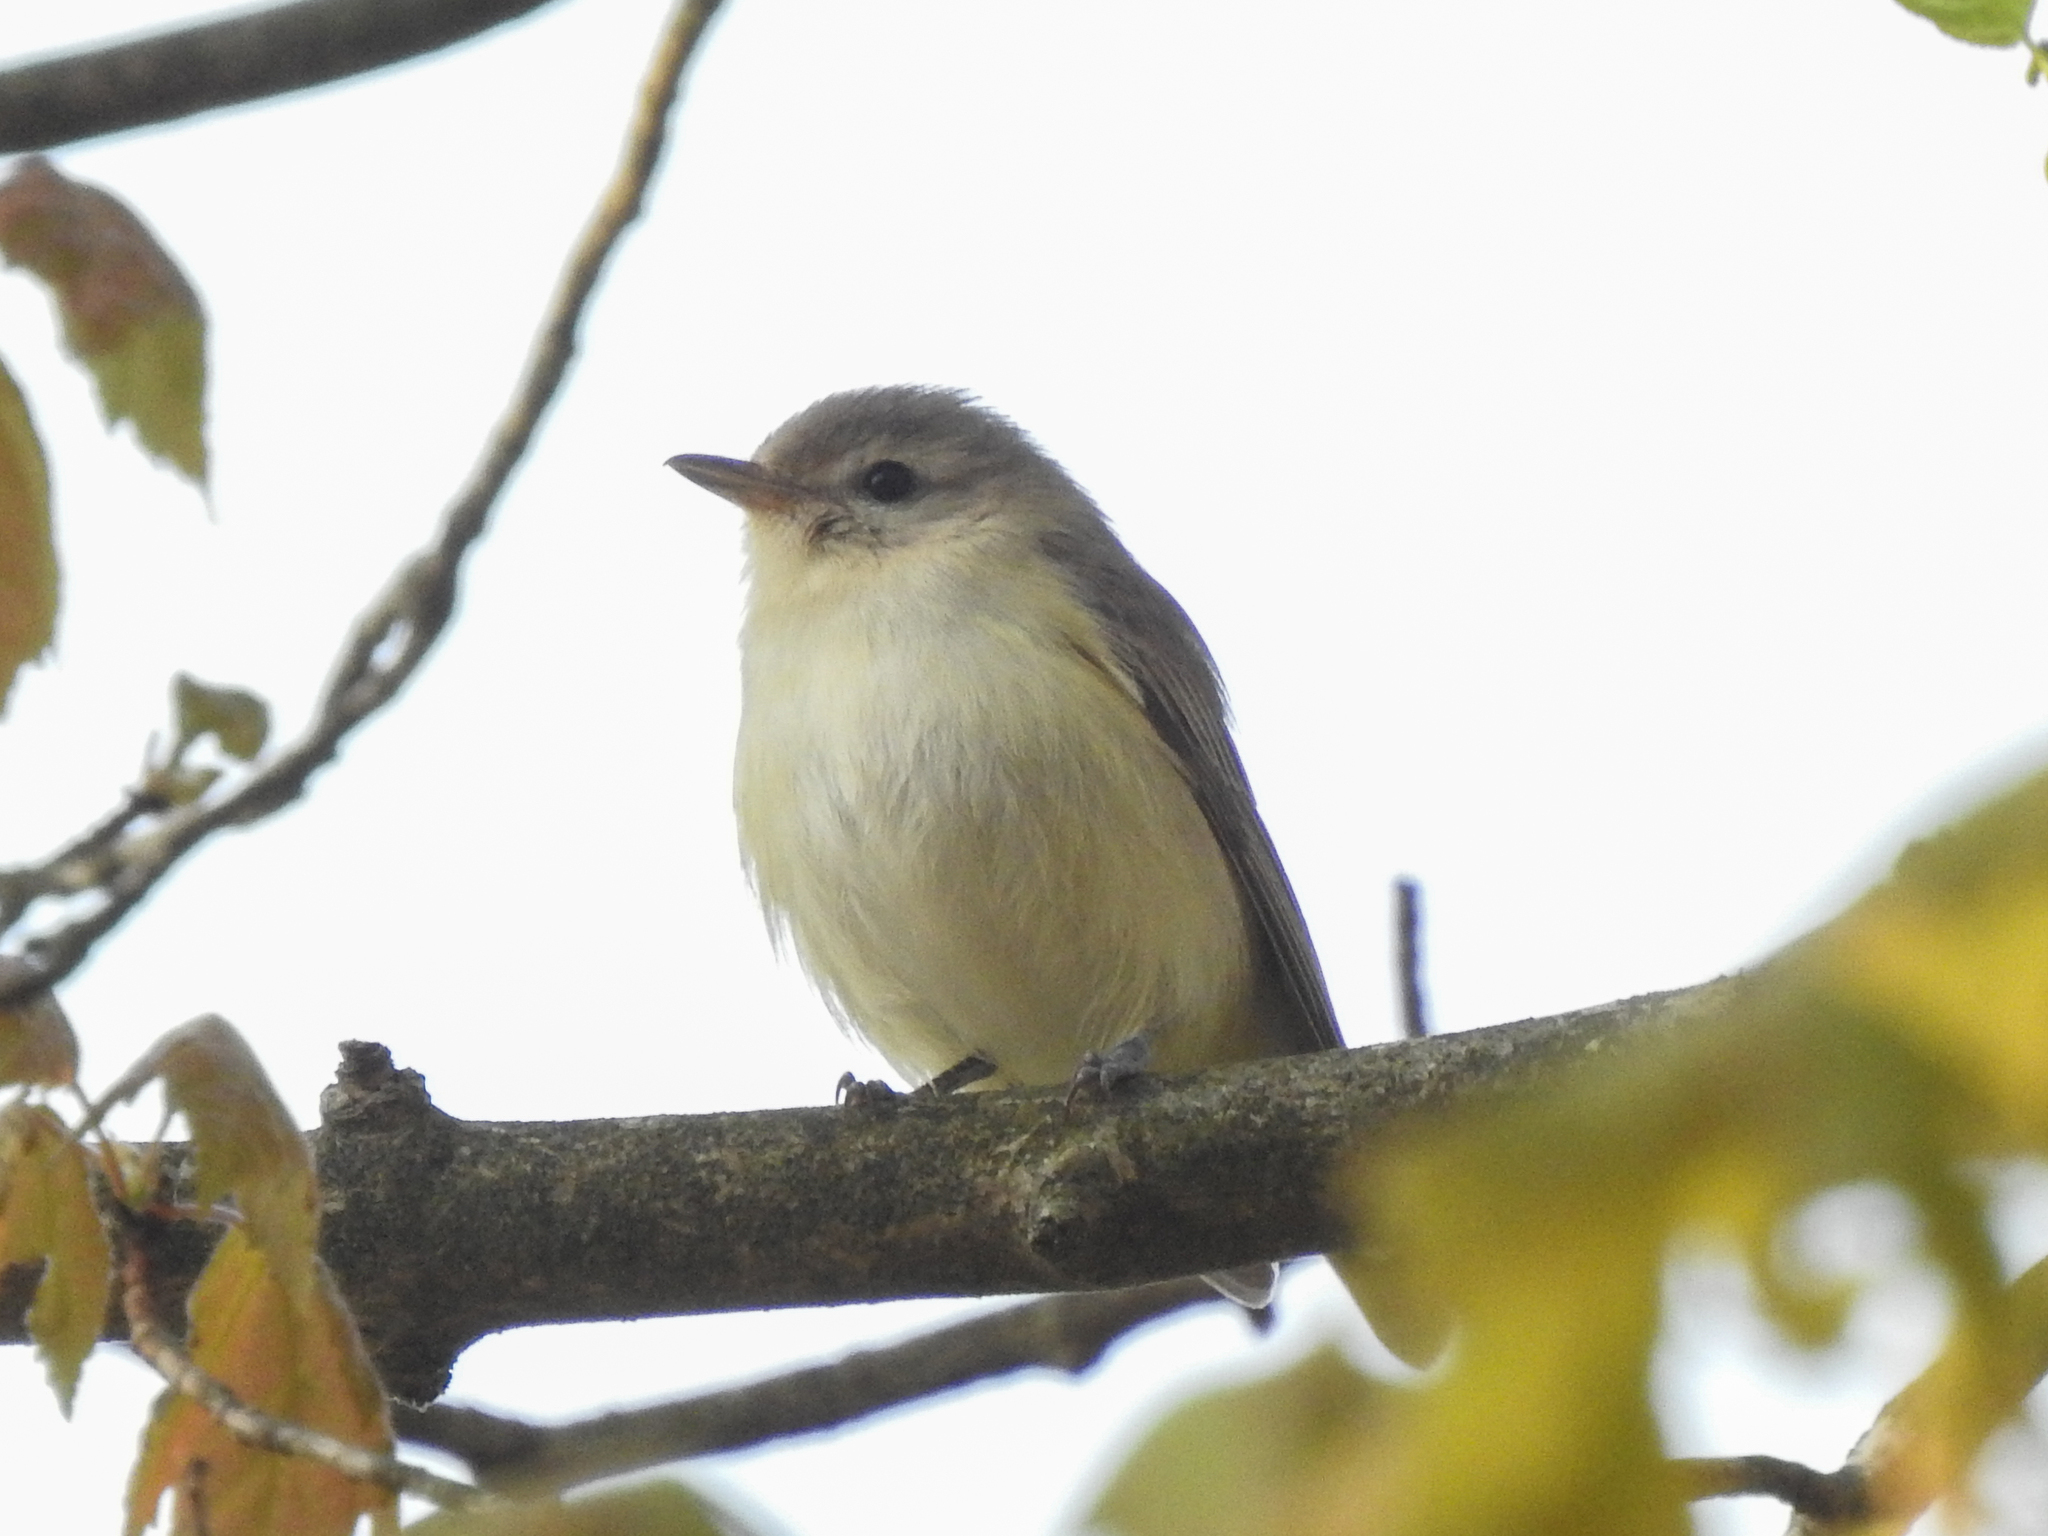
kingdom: Animalia
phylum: Chordata
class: Aves
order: Passeriformes
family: Vireonidae
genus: Vireo
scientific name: Vireo gilvus
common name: Warbling vireo
